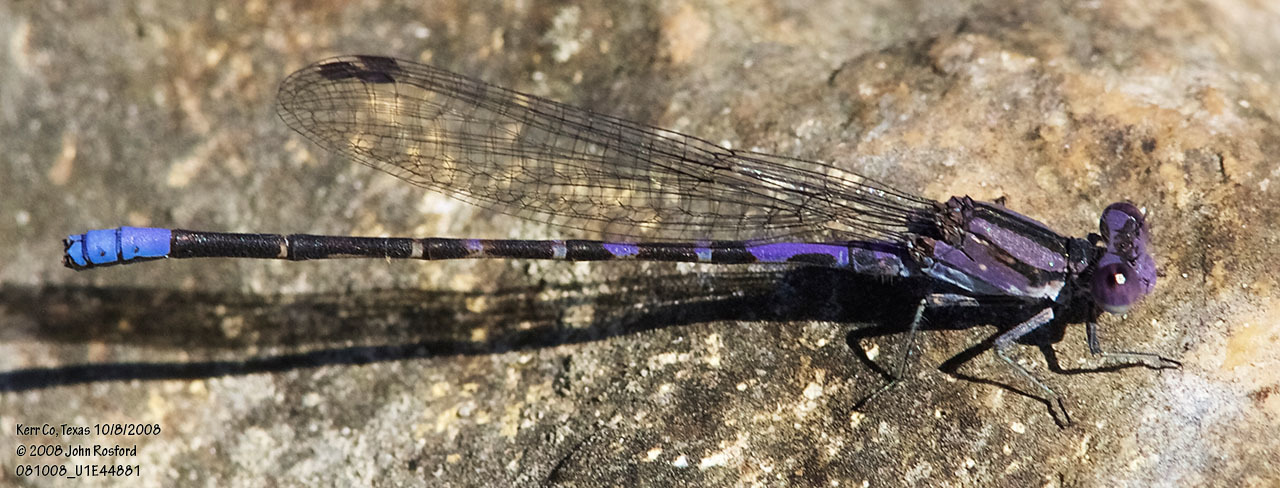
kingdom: Animalia
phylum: Arthropoda
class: Insecta
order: Odonata
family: Coenagrionidae
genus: Argia
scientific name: Argia immunda
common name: Kiowa dancer
